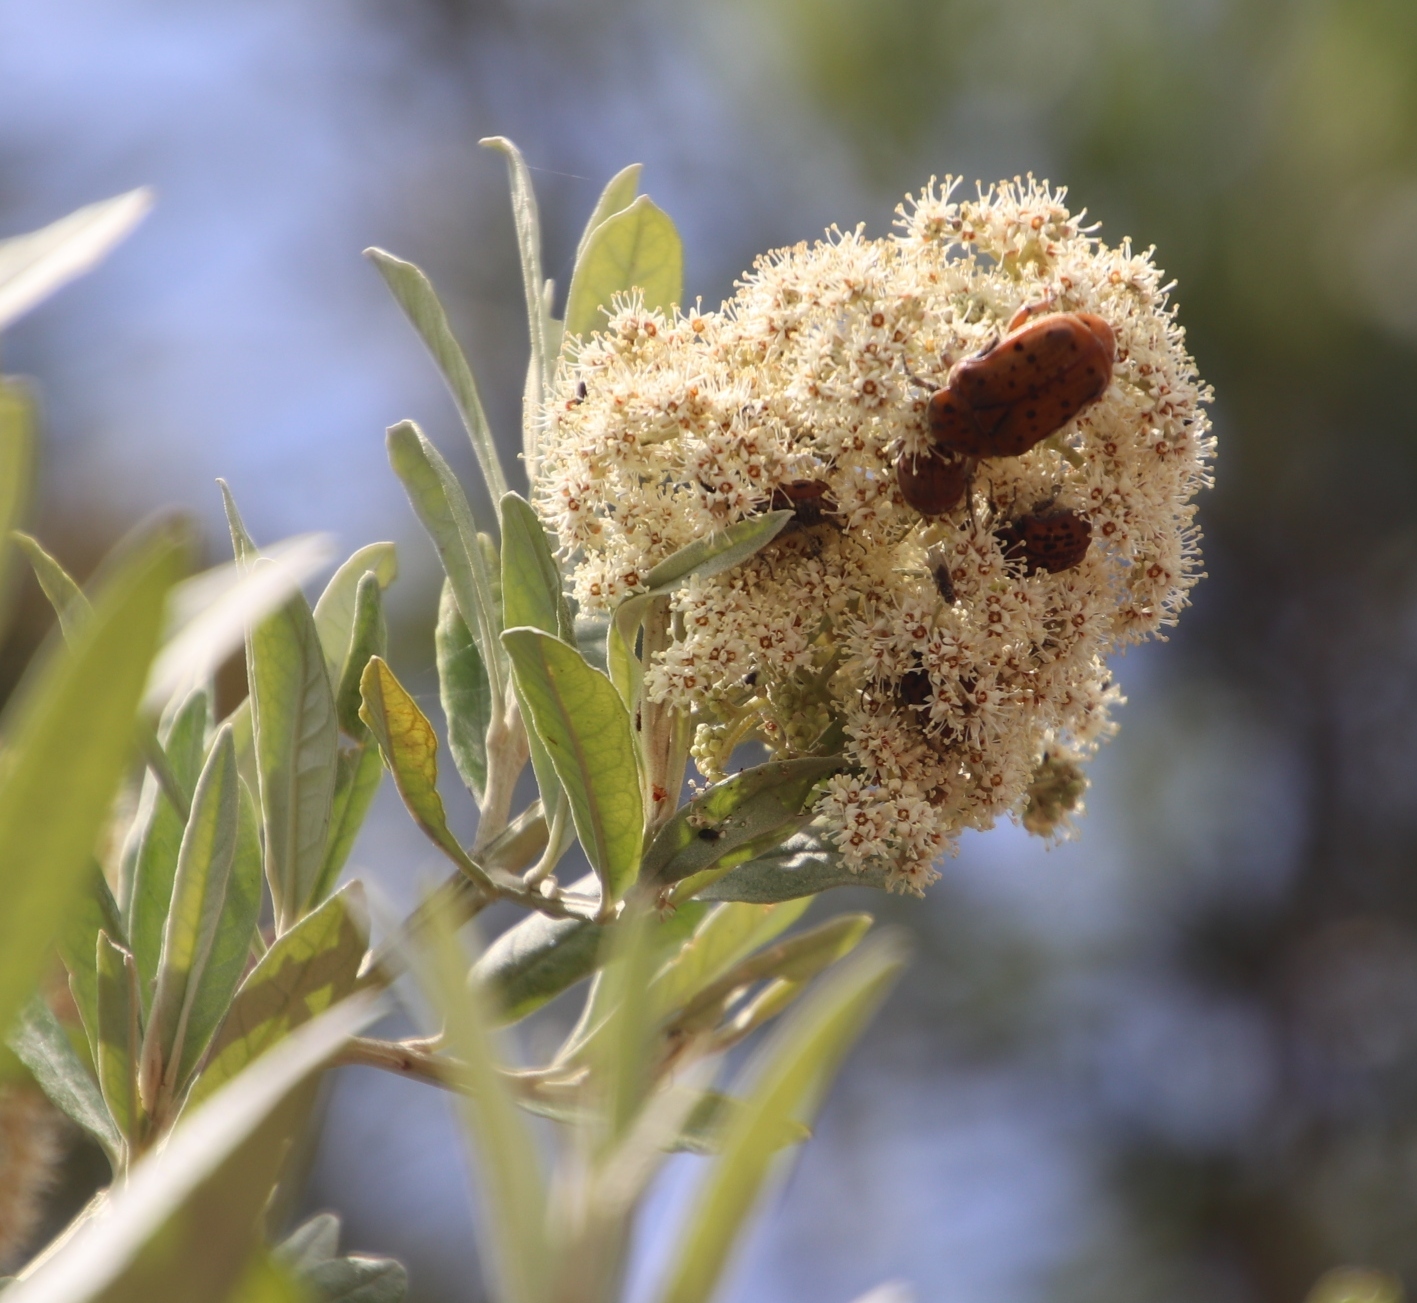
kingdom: Plantae
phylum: Tracheophyta
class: Magnoliopsida
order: Lamiales
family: Scrophulariaceae
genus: Buddleja
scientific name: Buddleja saligna
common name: False olive
